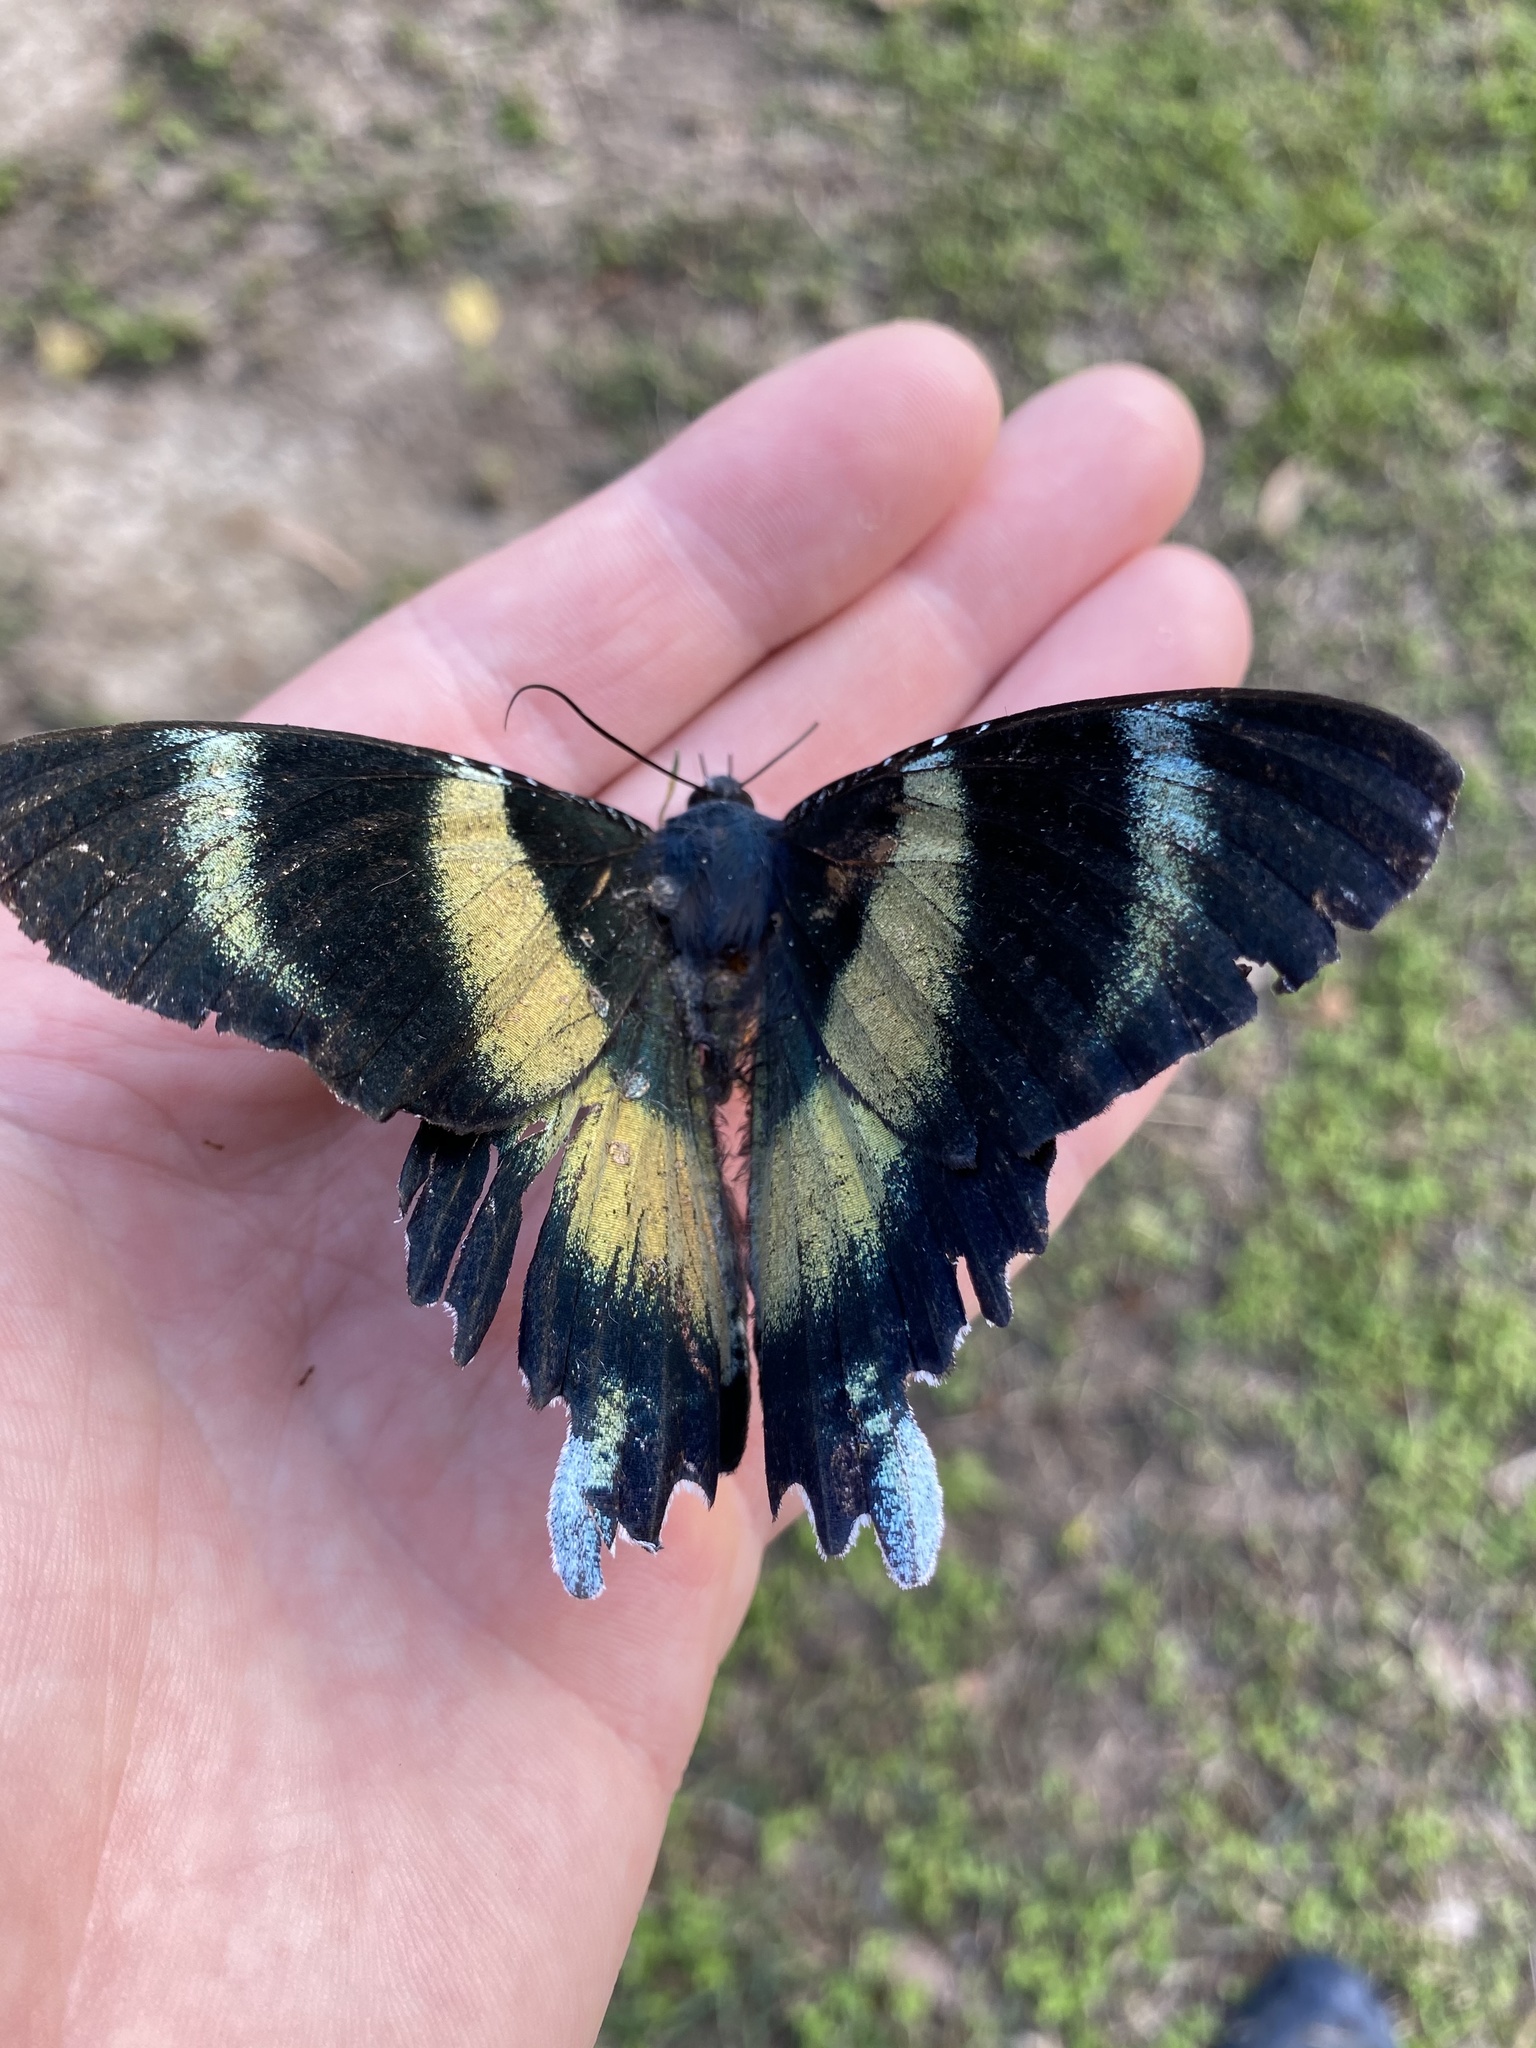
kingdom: Animalia
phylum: Arthropoda
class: Insecta
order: Lepidoptera
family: Uraniidae
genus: Alcides
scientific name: Alcides metaurus
